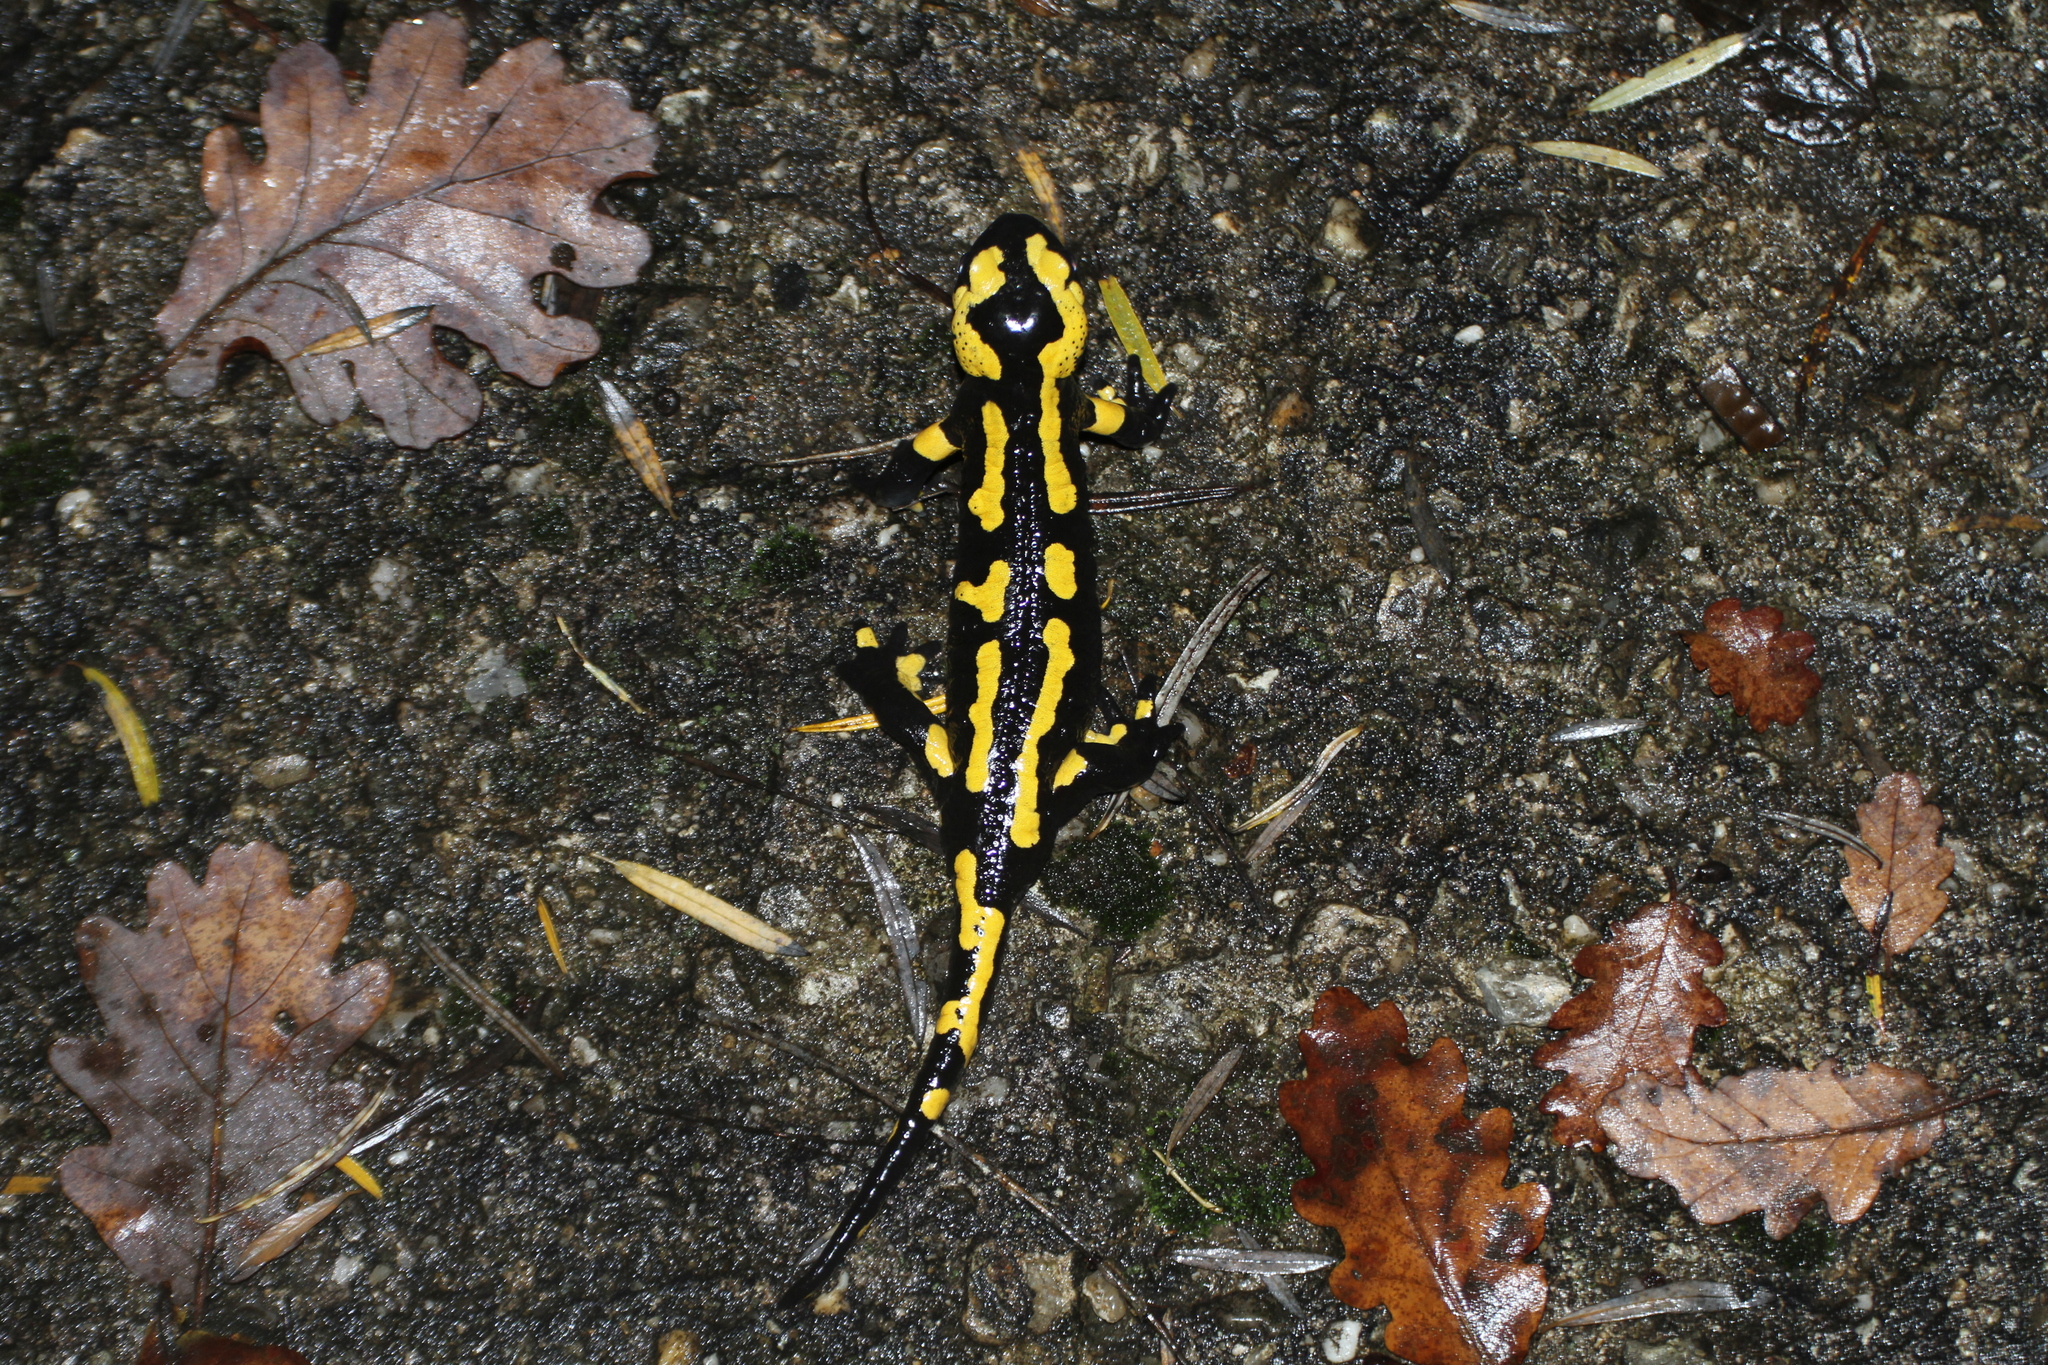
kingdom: Animalia
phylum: Chordata
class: Amphibia
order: Caudata
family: Salamandridae
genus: Salamandra
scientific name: Salamandra salamandra
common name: Fire salamander
